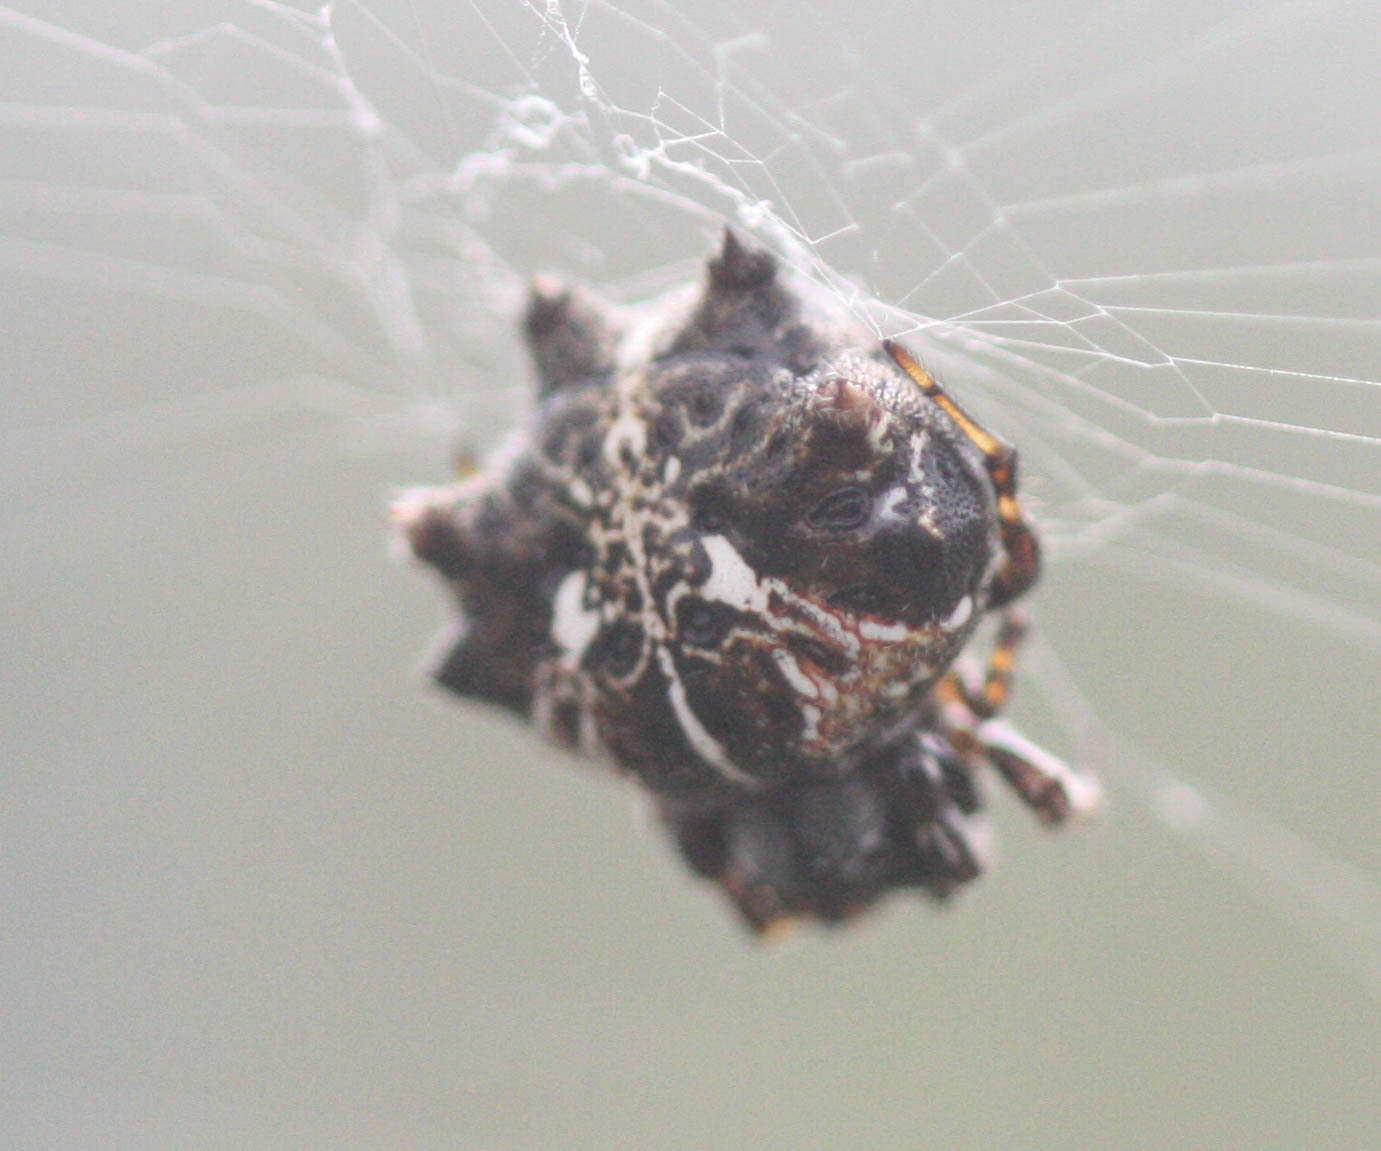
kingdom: Animalia
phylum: Arthropoda
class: Arachnida
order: Araneae
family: Araneidae
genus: Thelacantha
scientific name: Thelacantha brevispina
